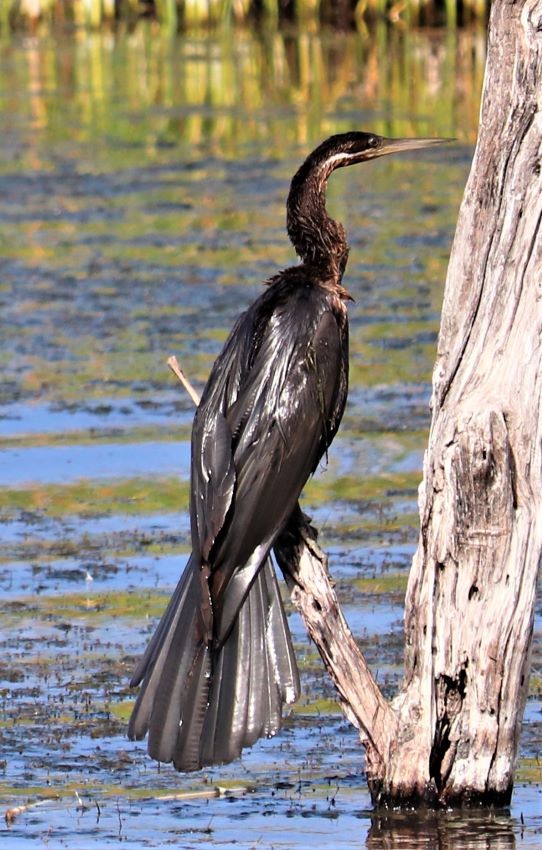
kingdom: Animalia
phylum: Chordata
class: Aves
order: Suliformes
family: Anhingidae
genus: Anhinga
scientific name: Anhinga rufa
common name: African darter
